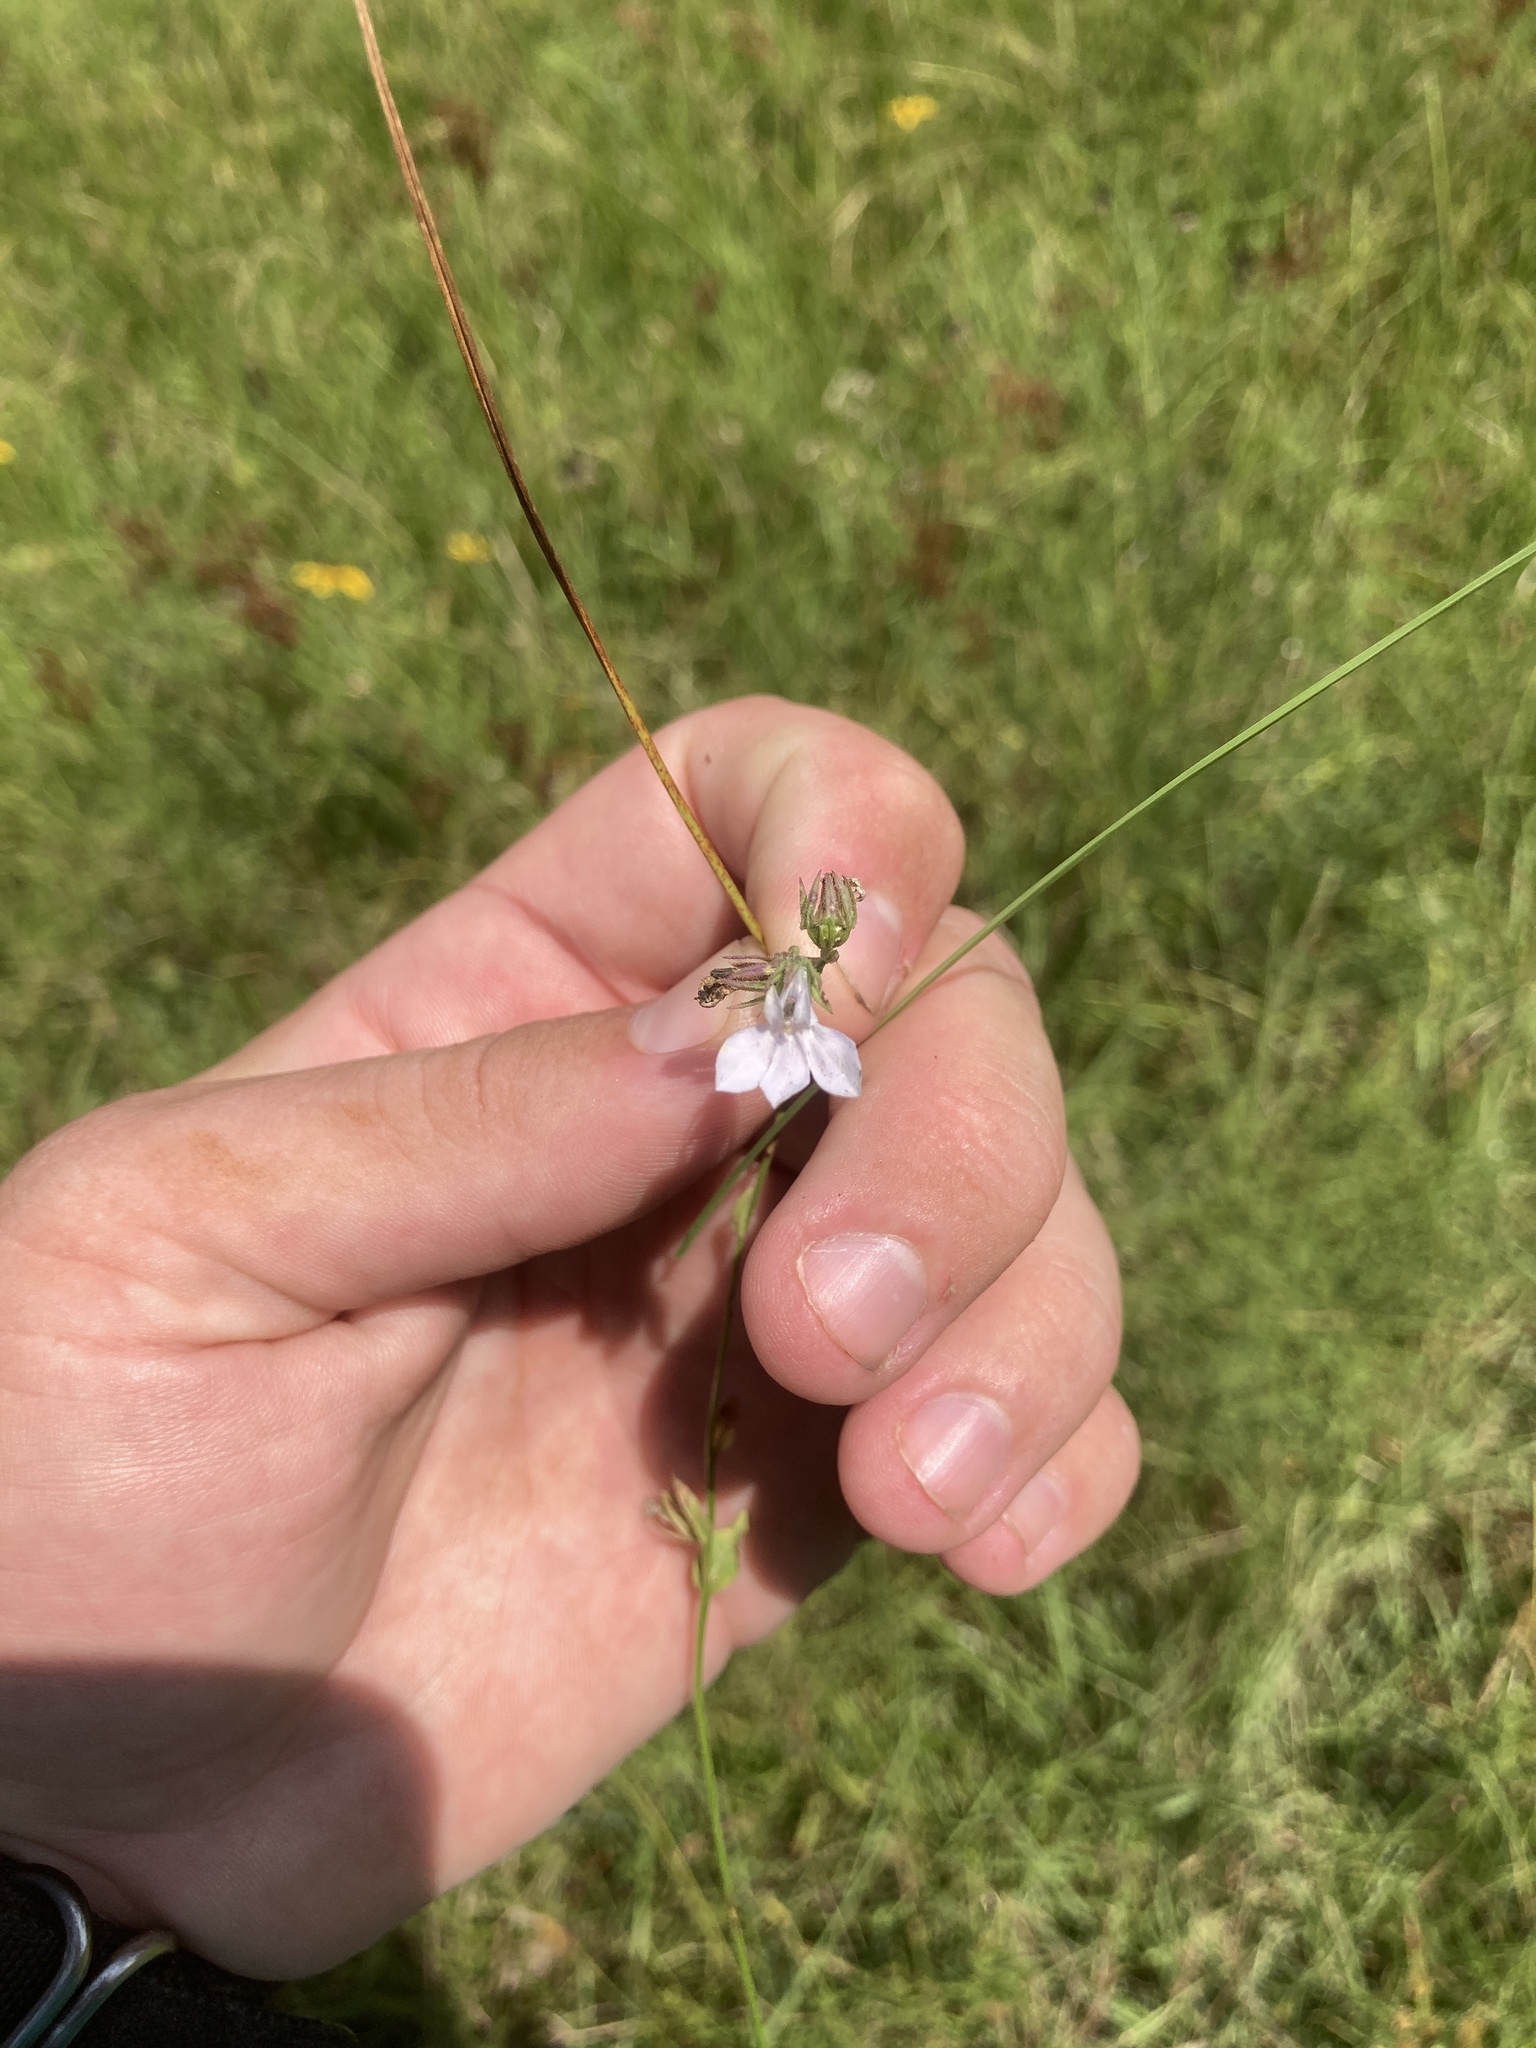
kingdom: Plantae
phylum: Tracheophyta
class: Magnoliopsida
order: Asterales
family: Campanulaceae
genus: Lobelia
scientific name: Lobelia spicata
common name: Pale-spike lobelia
